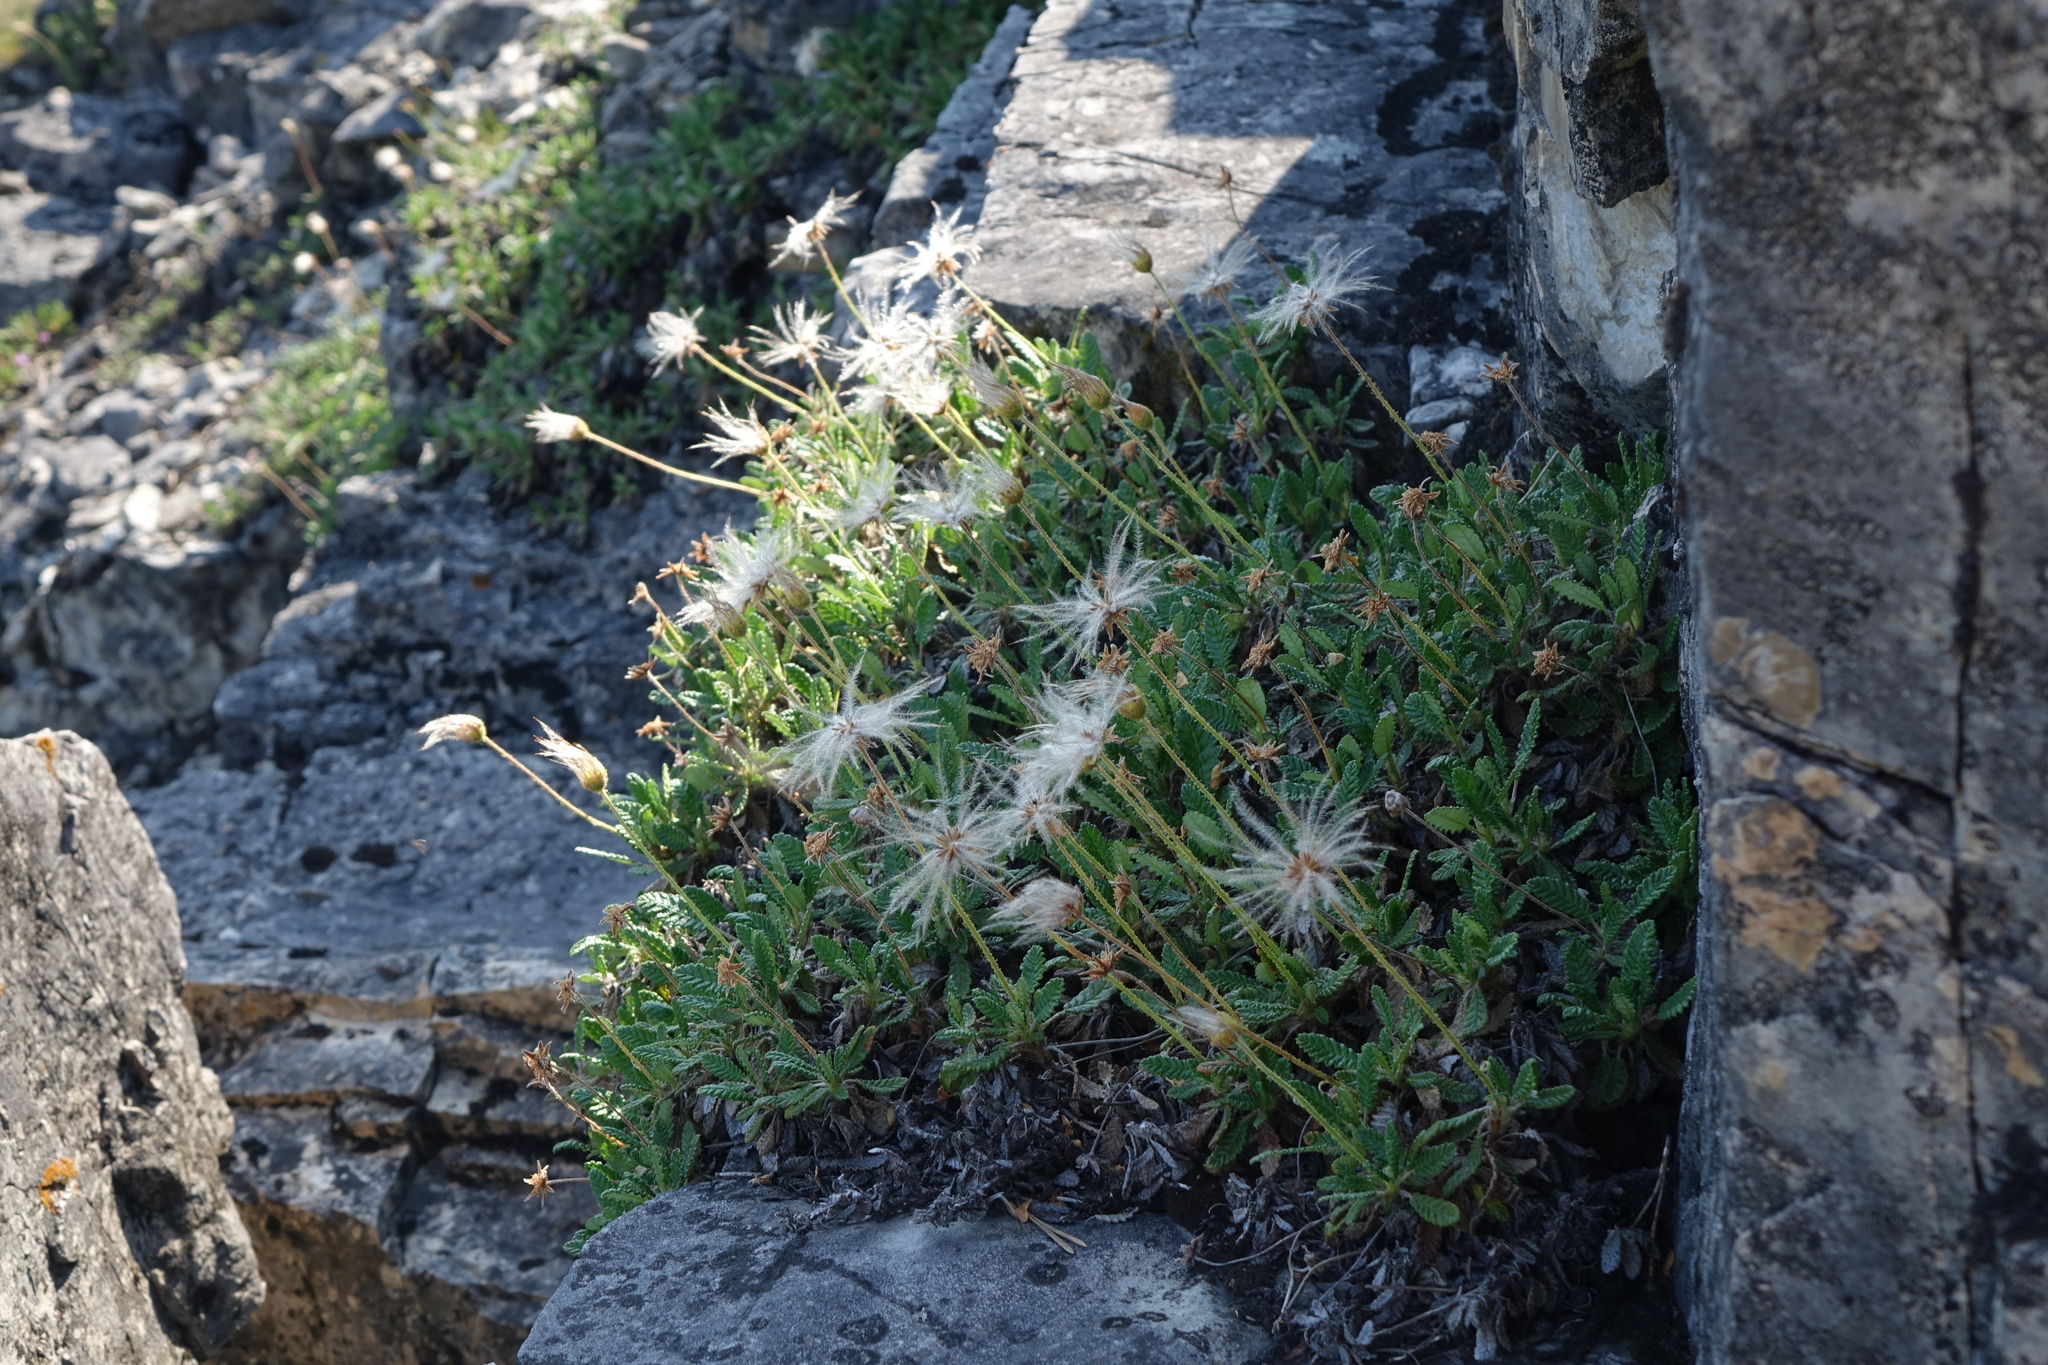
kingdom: Plantae
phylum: Tracheophyta
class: Magnoliopsida
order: Rosales
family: Rosaceae
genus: Dryas
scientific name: Dryas octopetala
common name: Eight-petal mountain-avens
